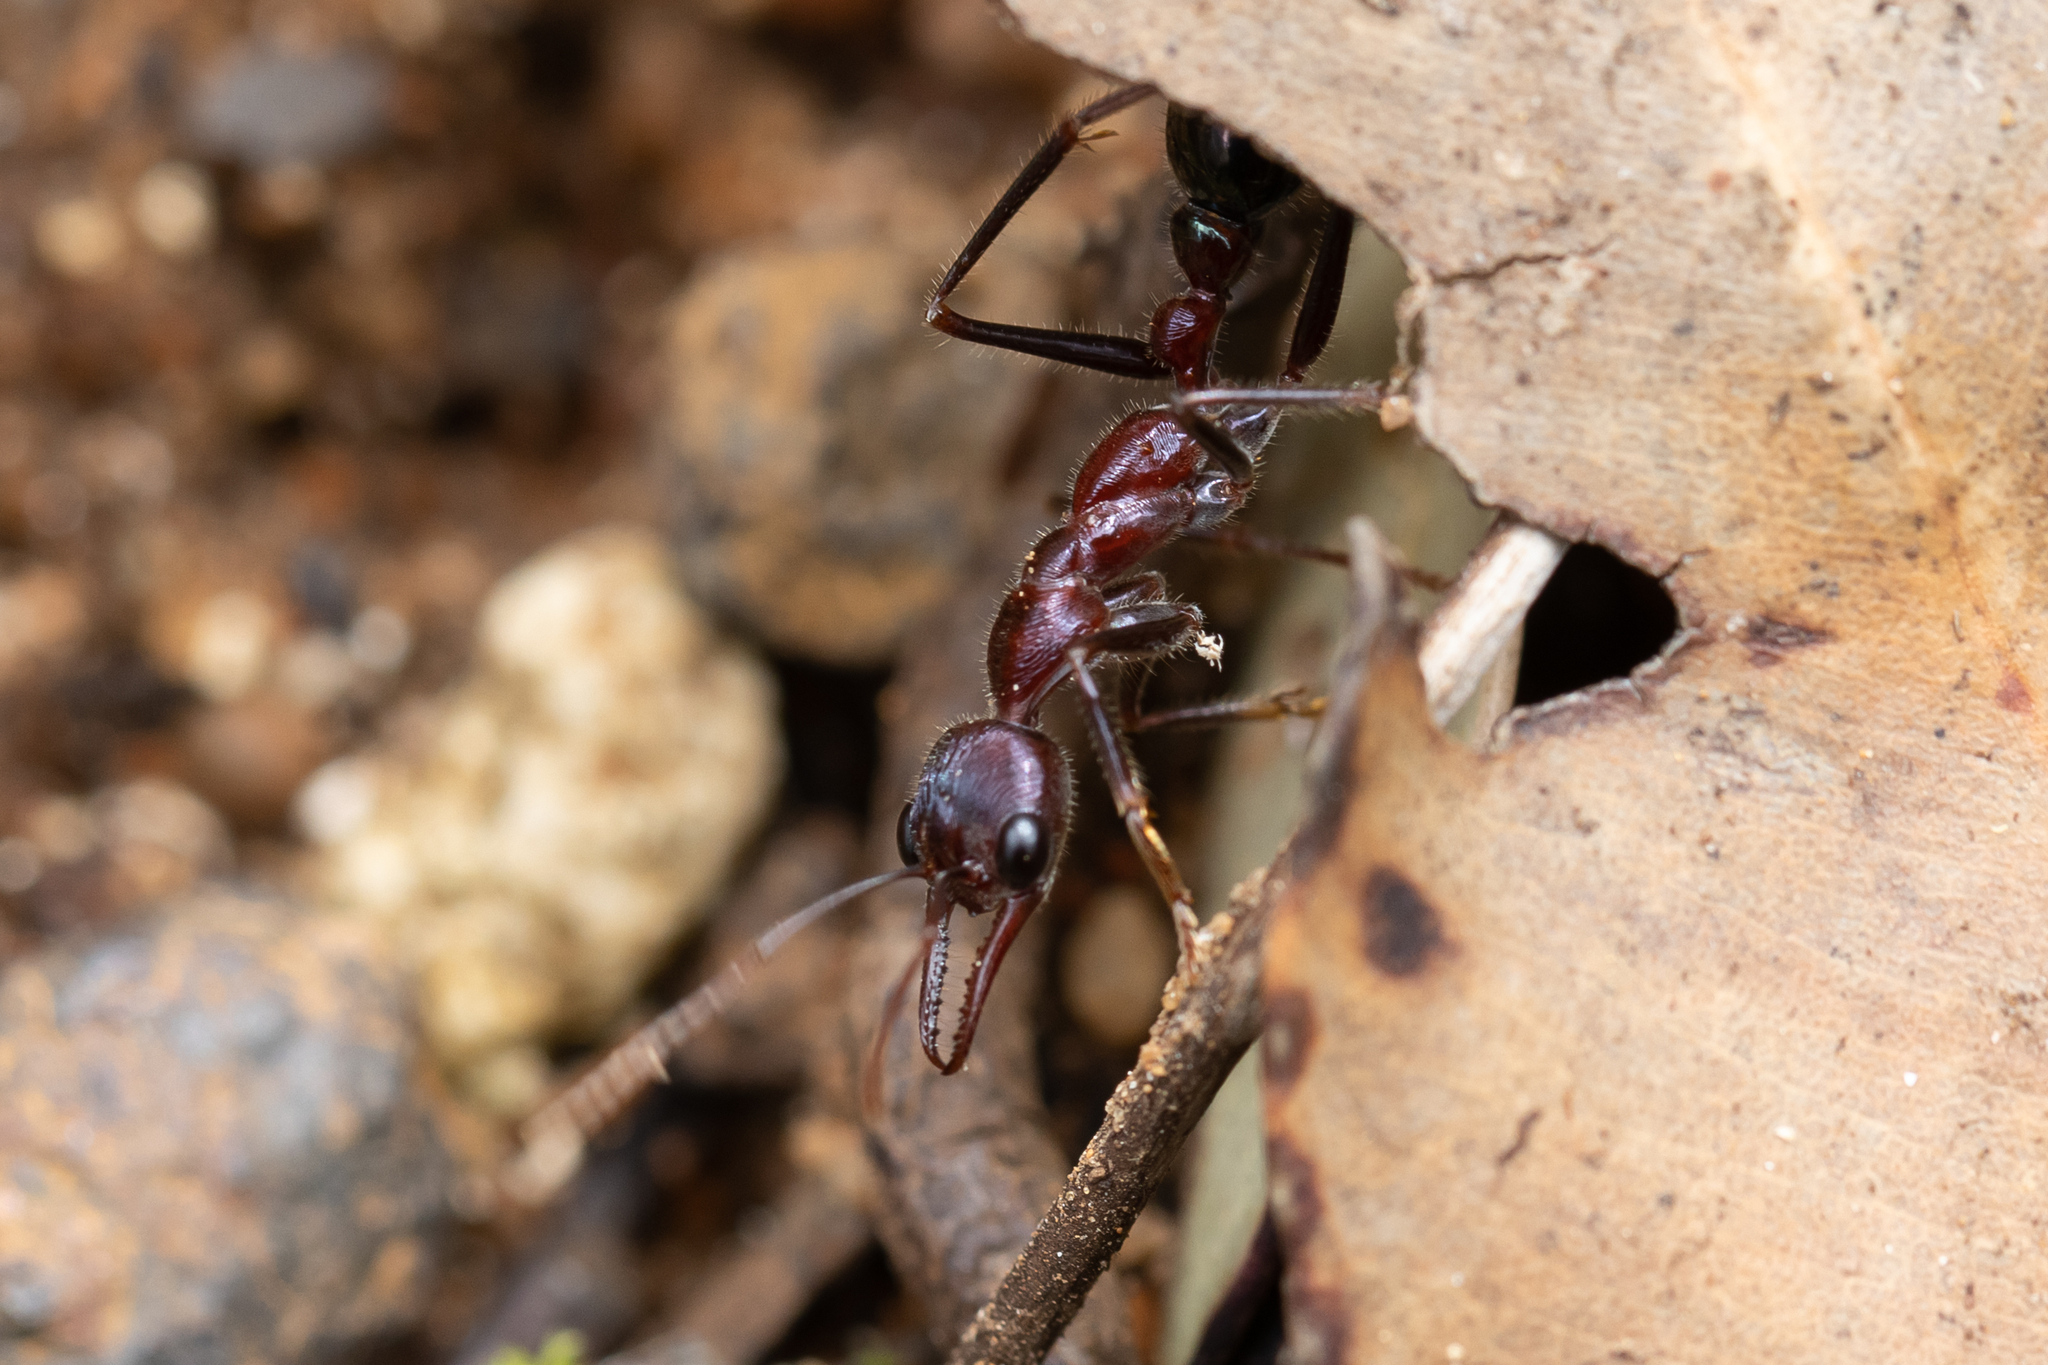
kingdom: Animalia
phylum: Arthropoda
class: Insecta
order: Hymenoptera
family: Formicidae
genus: Myrmecia
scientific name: Myrmecia regularis
